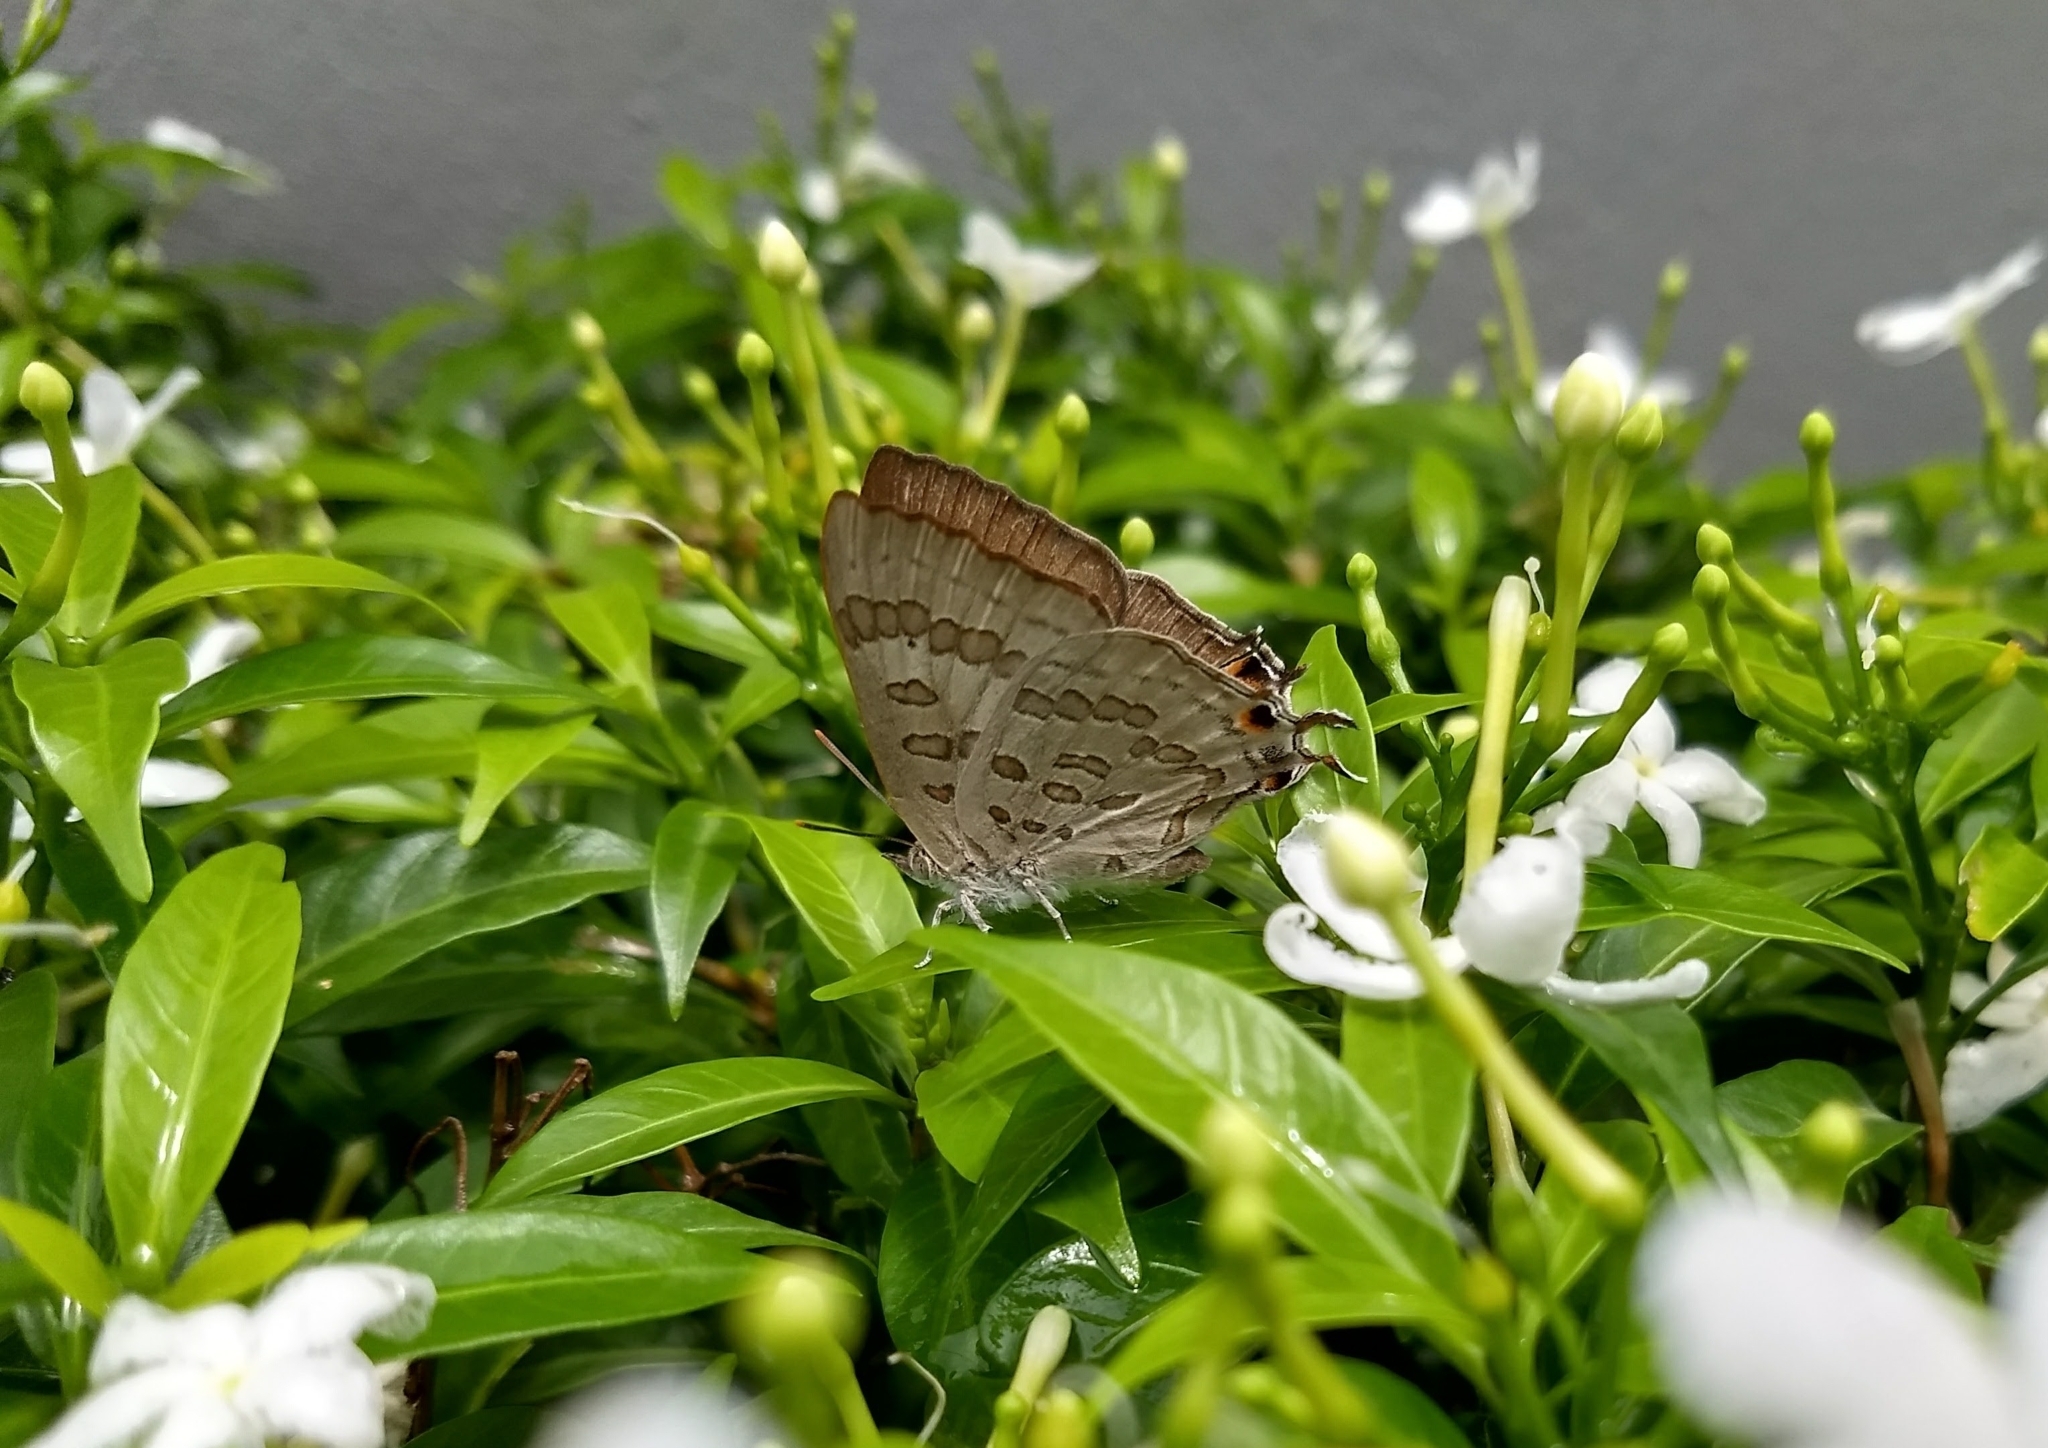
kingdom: Animalia
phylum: Arthropoda
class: Insecta
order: Lepidoptera
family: Lycaenidae
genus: Zesius
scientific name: Zesius chrysomallus
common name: Redspot
